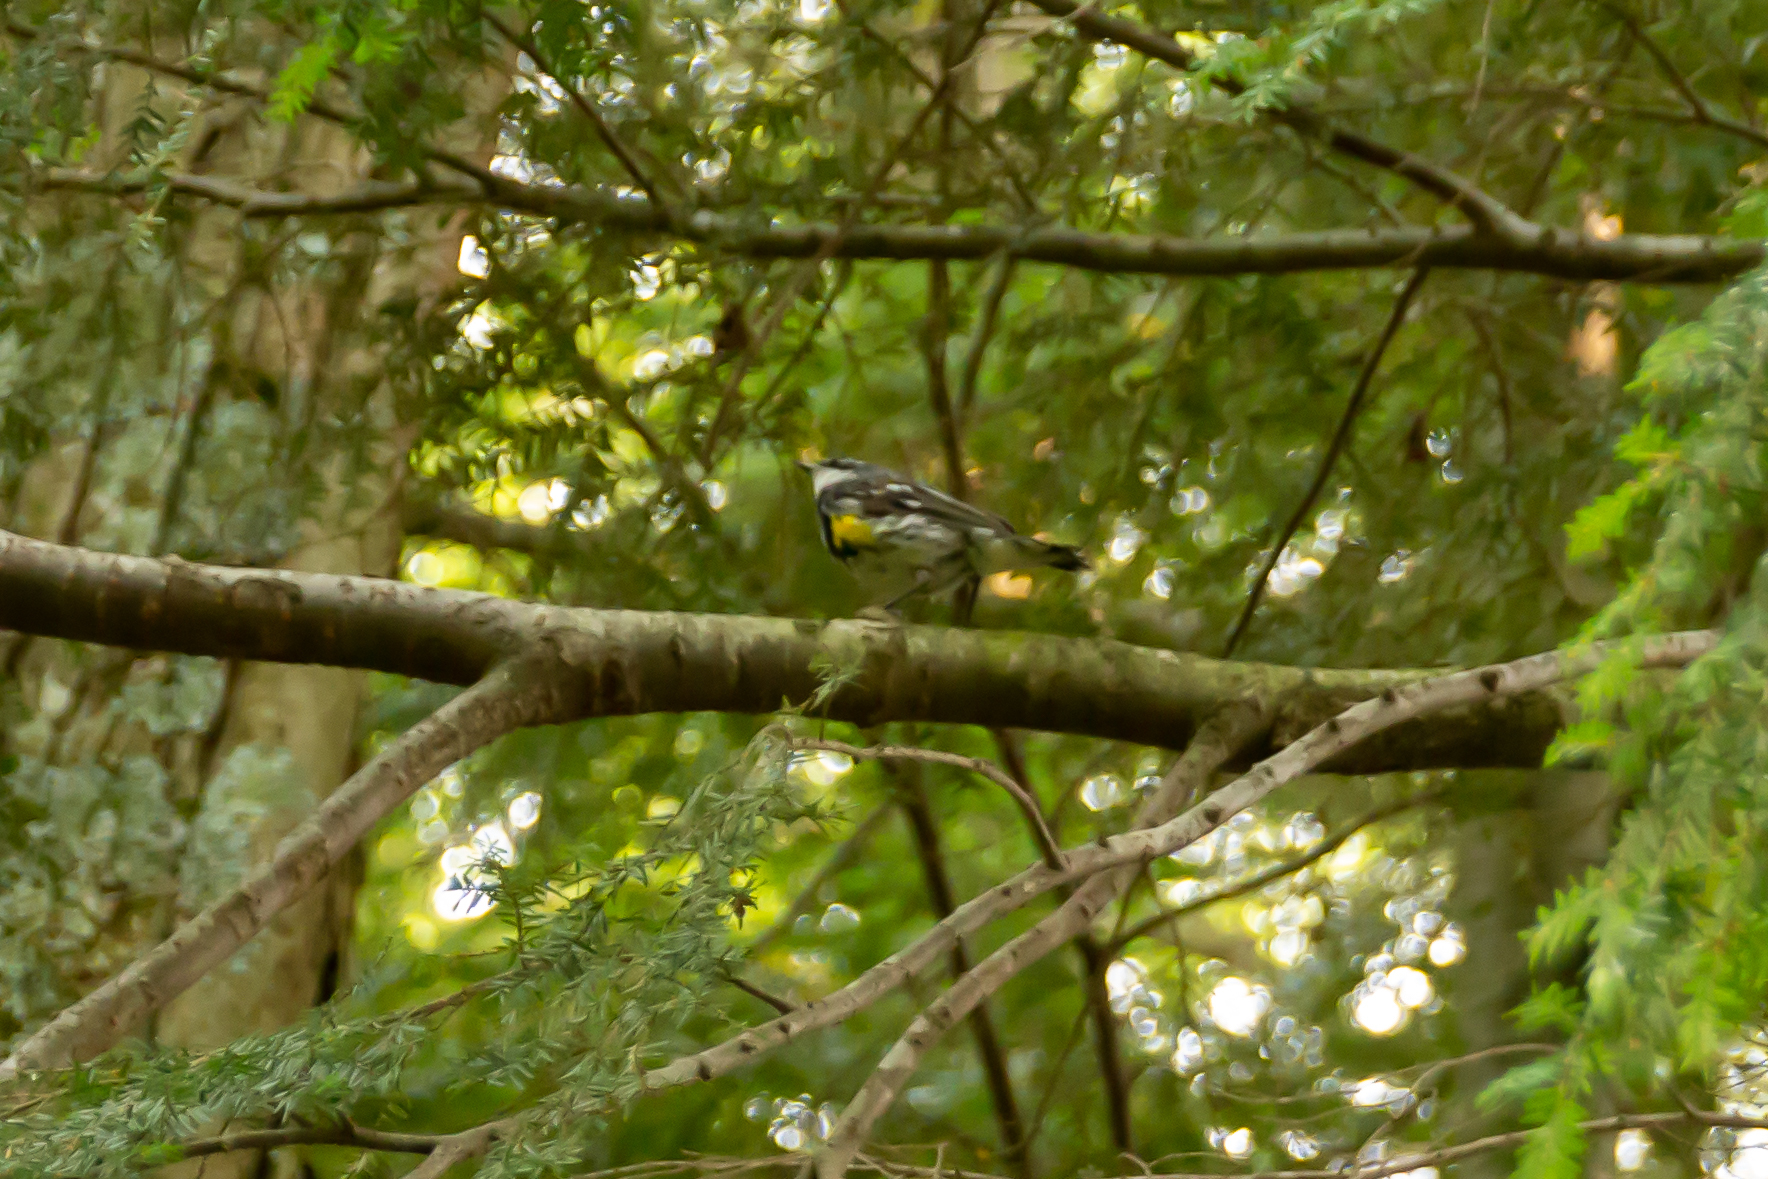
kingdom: Animalia
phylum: Chordata
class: Aves
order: Passeriformes
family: Parulidae
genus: Setophaga
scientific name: Setophaga coronata
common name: Myrtle warbler
